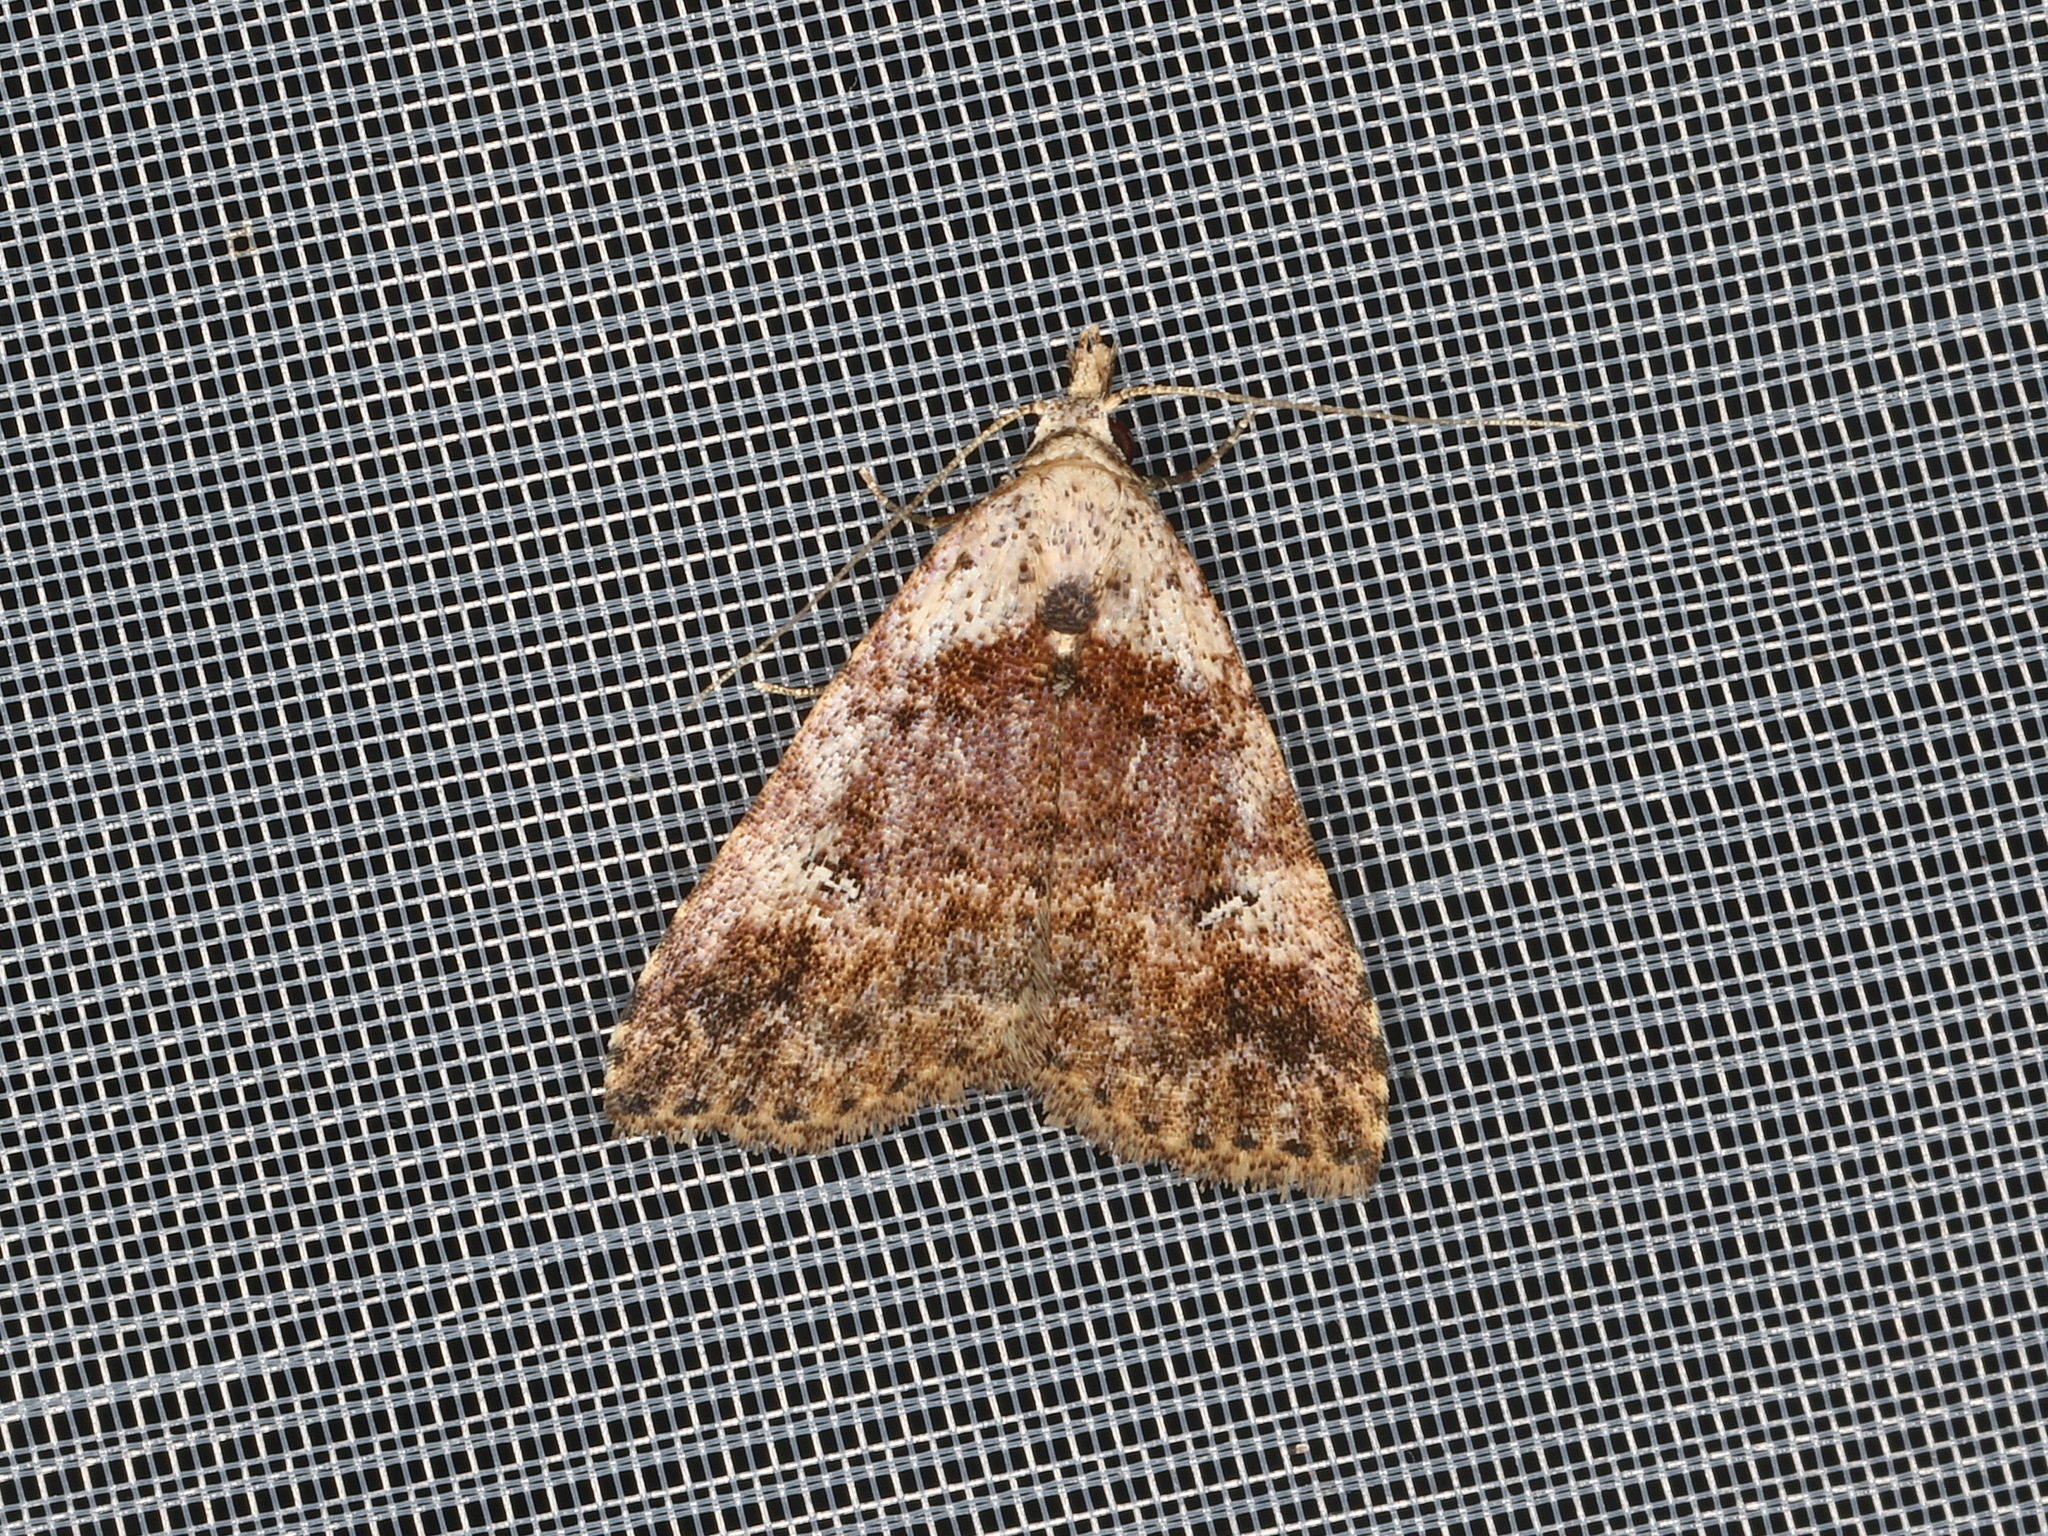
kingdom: Animalia
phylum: Arthropoda
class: Insecta
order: Lepidoptera
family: Erebidae
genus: Alapadna
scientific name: Alapadna pauropis
